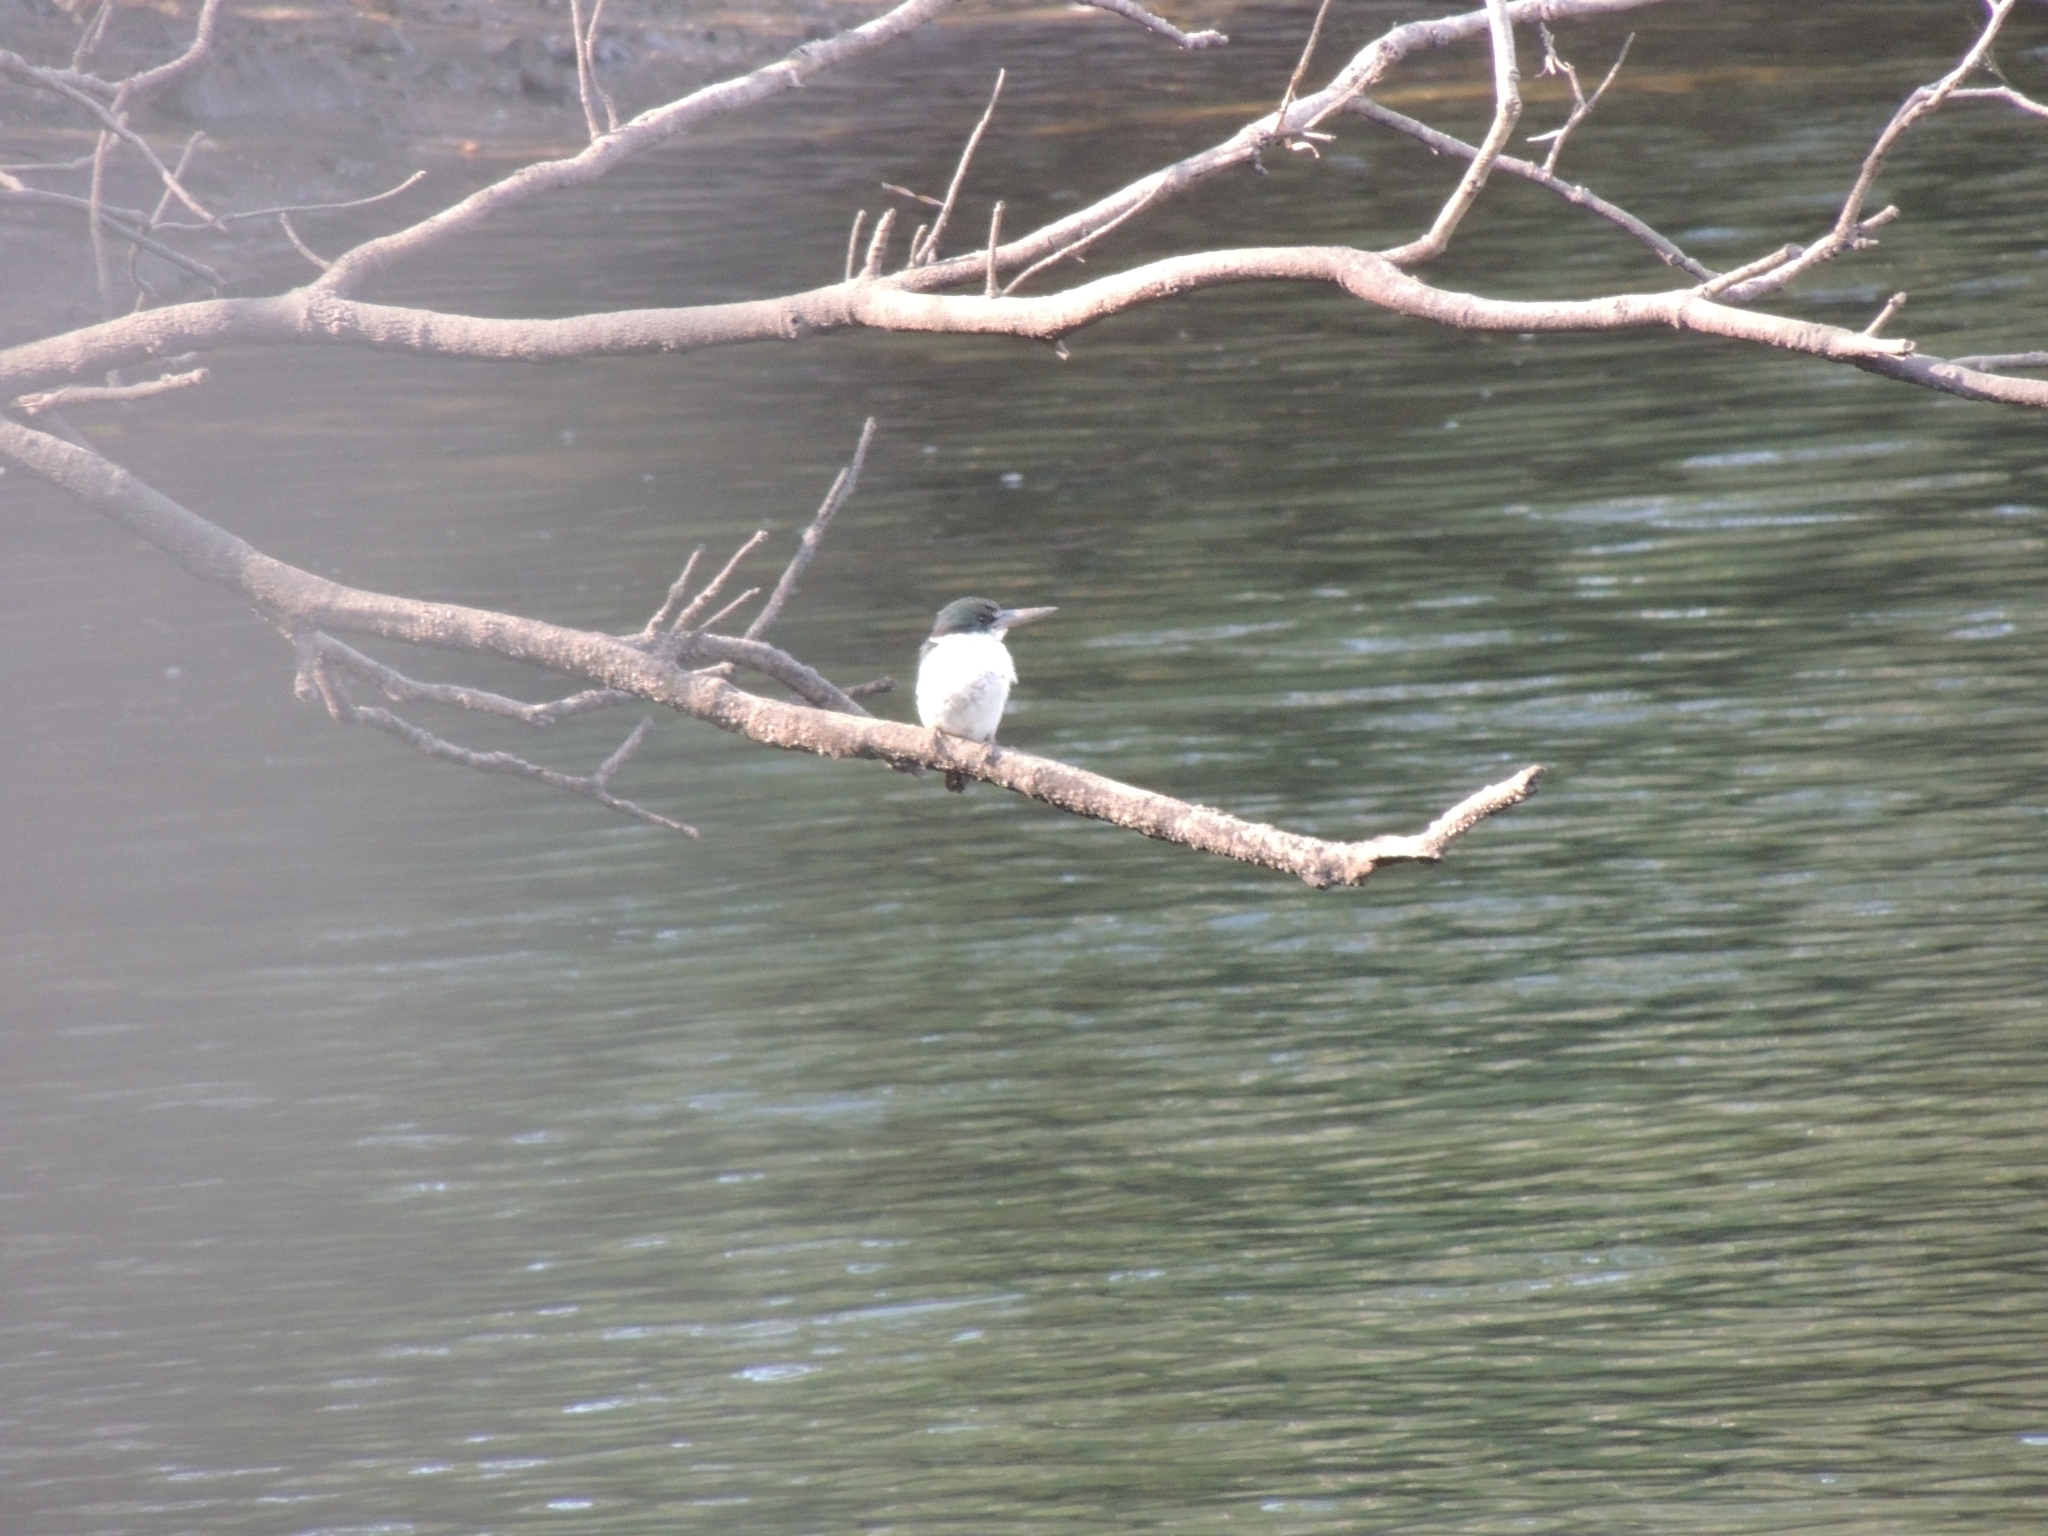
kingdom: Animalia
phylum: Chordata
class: Aves
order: Coraciiformes
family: Alcedinidae
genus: Todiramphus
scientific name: Todiramphus sordidus
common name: Torresian kingfisher
